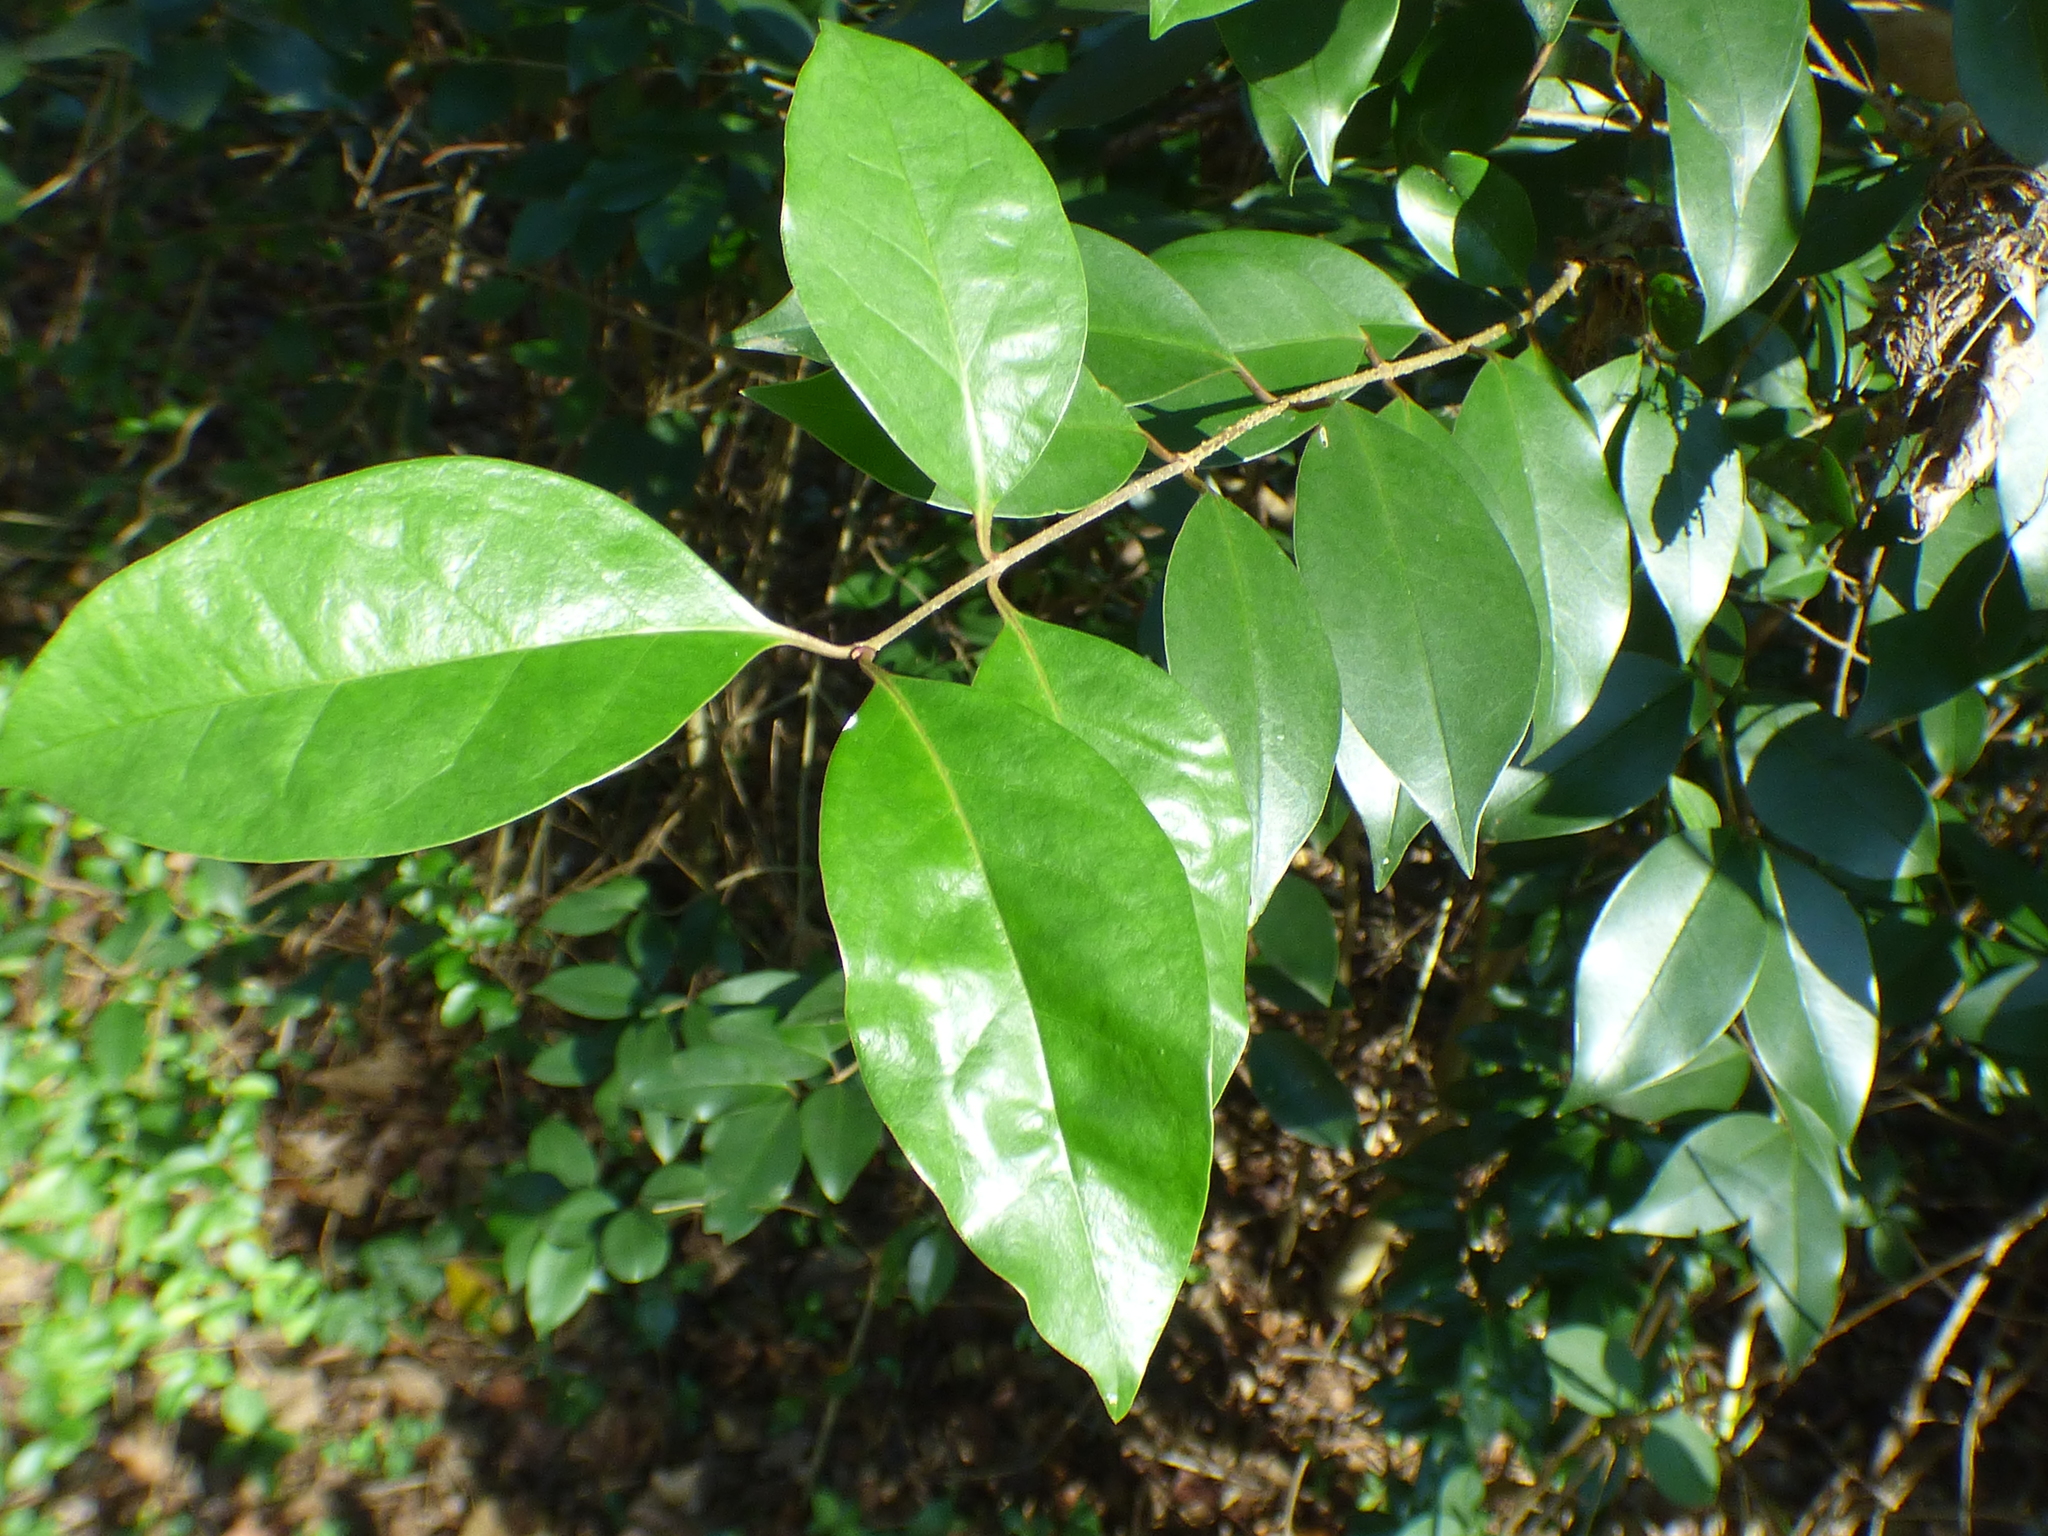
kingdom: Plantae
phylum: Tracheophyta
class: Magnoliopsida
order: Lamiales
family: Oleaceae
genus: Ligustrum
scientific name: Ligustrum lucidum
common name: Glossy privet
